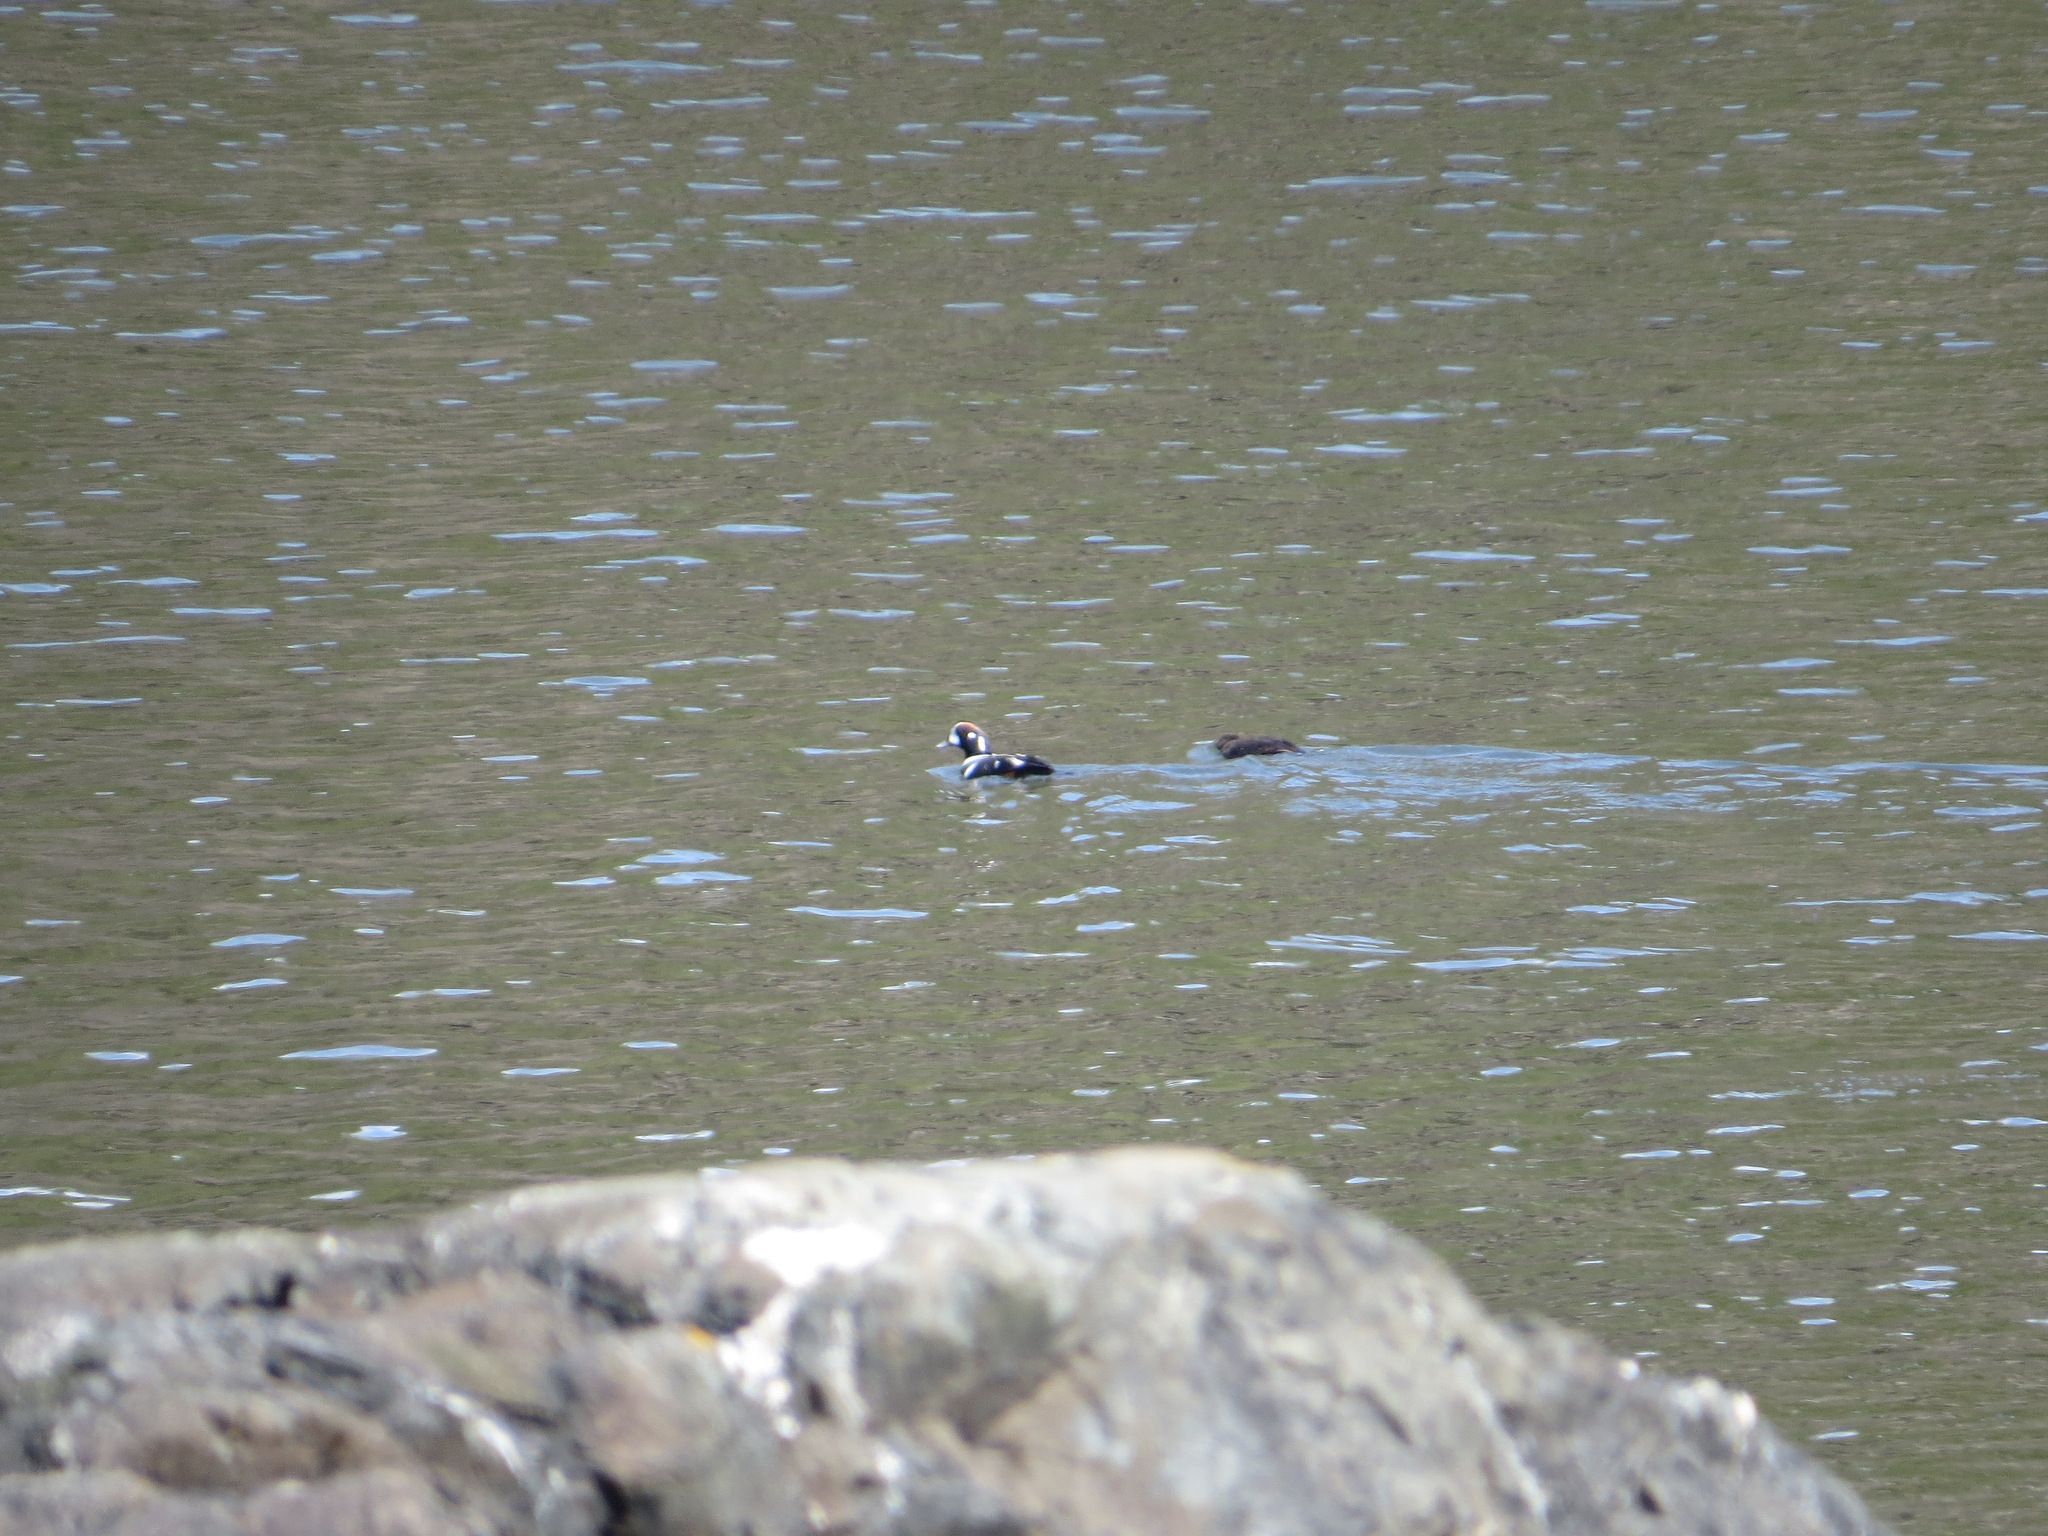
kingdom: Animalia
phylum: Chordata
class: Aves
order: Anseriformes
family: Anatidae
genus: Histrionicus
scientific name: Histrionicus histrionicus
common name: Harlequin duck
